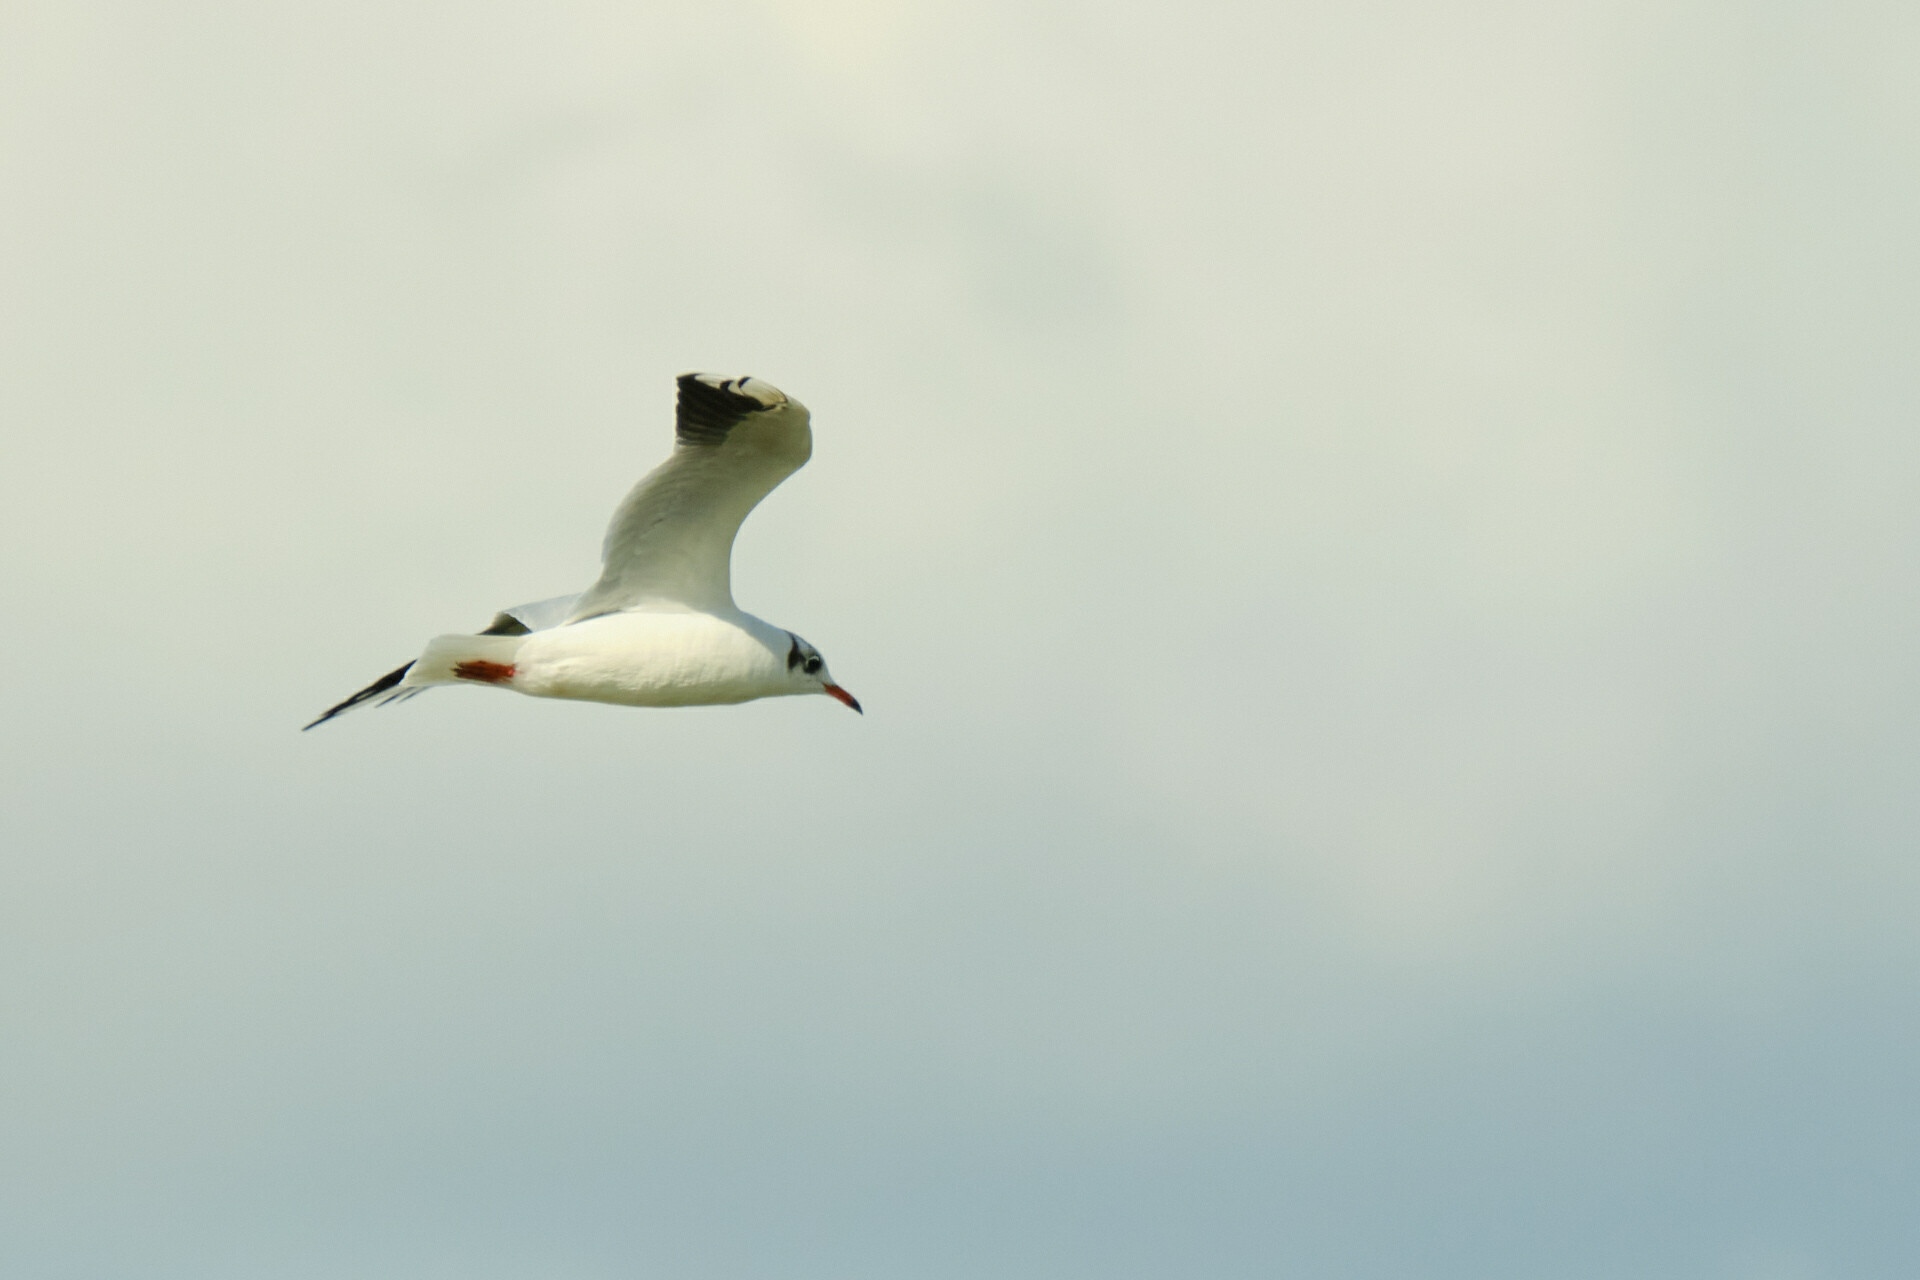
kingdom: Animalia
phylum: Chordata
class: Aves
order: Charadriiformes
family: Laridae
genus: Chroicocephalus
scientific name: Chroicocephalus ridibundus
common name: Black-headed gull
